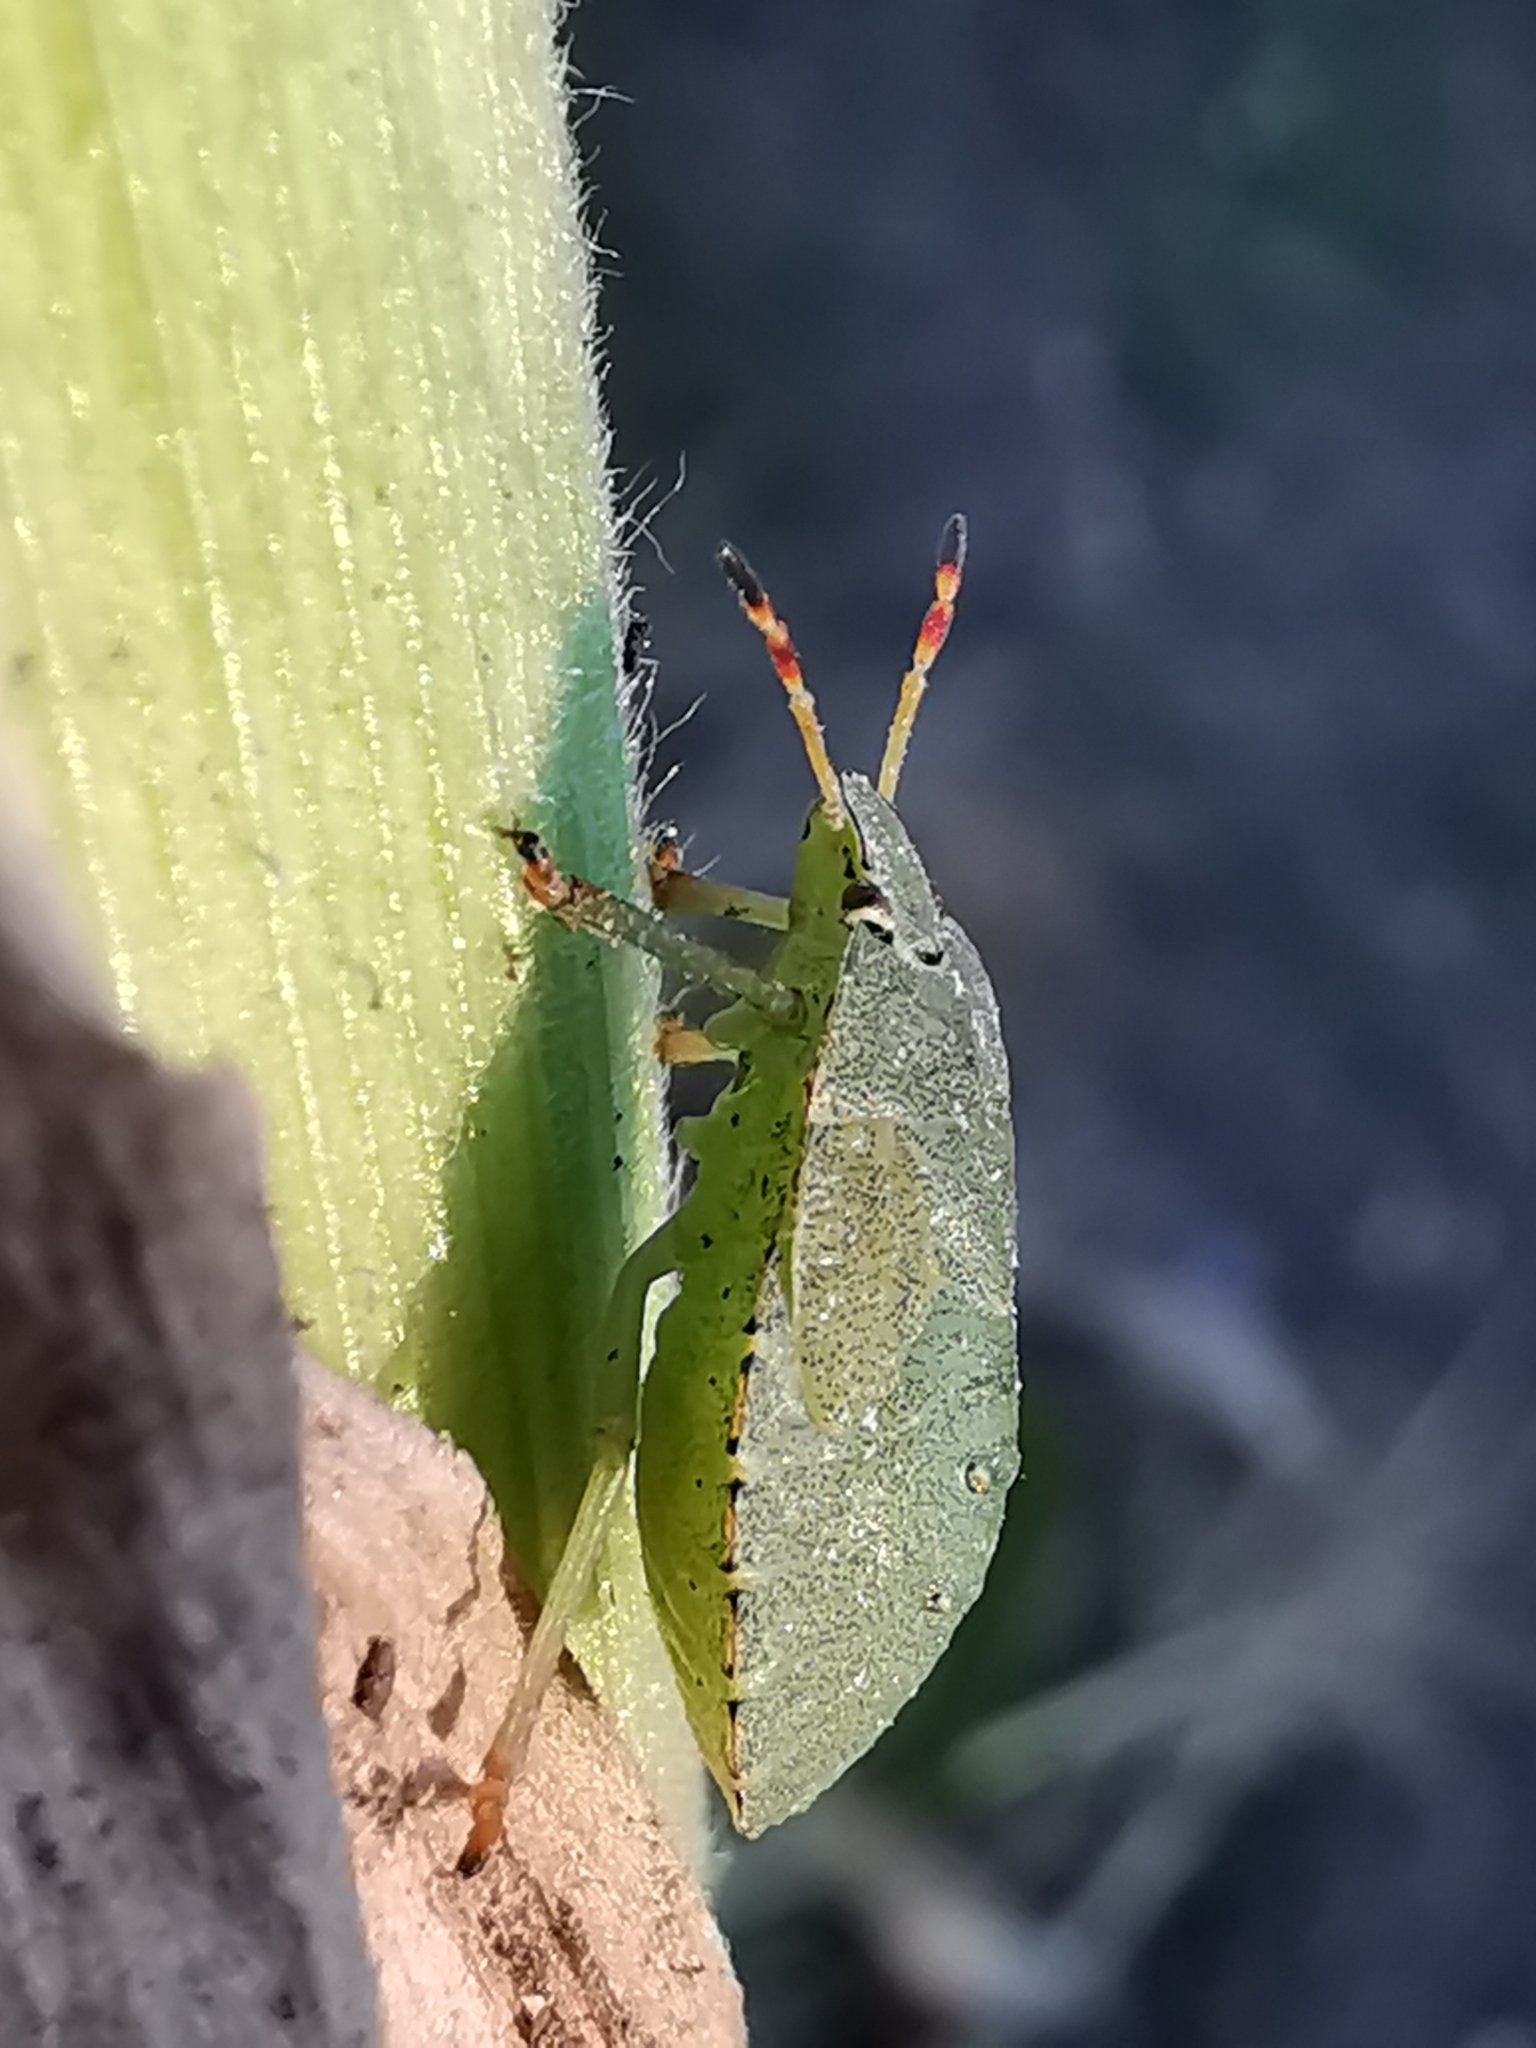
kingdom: Animalia
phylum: Arthropoda
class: Insecta
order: Hemiptera
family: Pentatomidae
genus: Palomena
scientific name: Palomena prasina
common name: Green shieldbug
